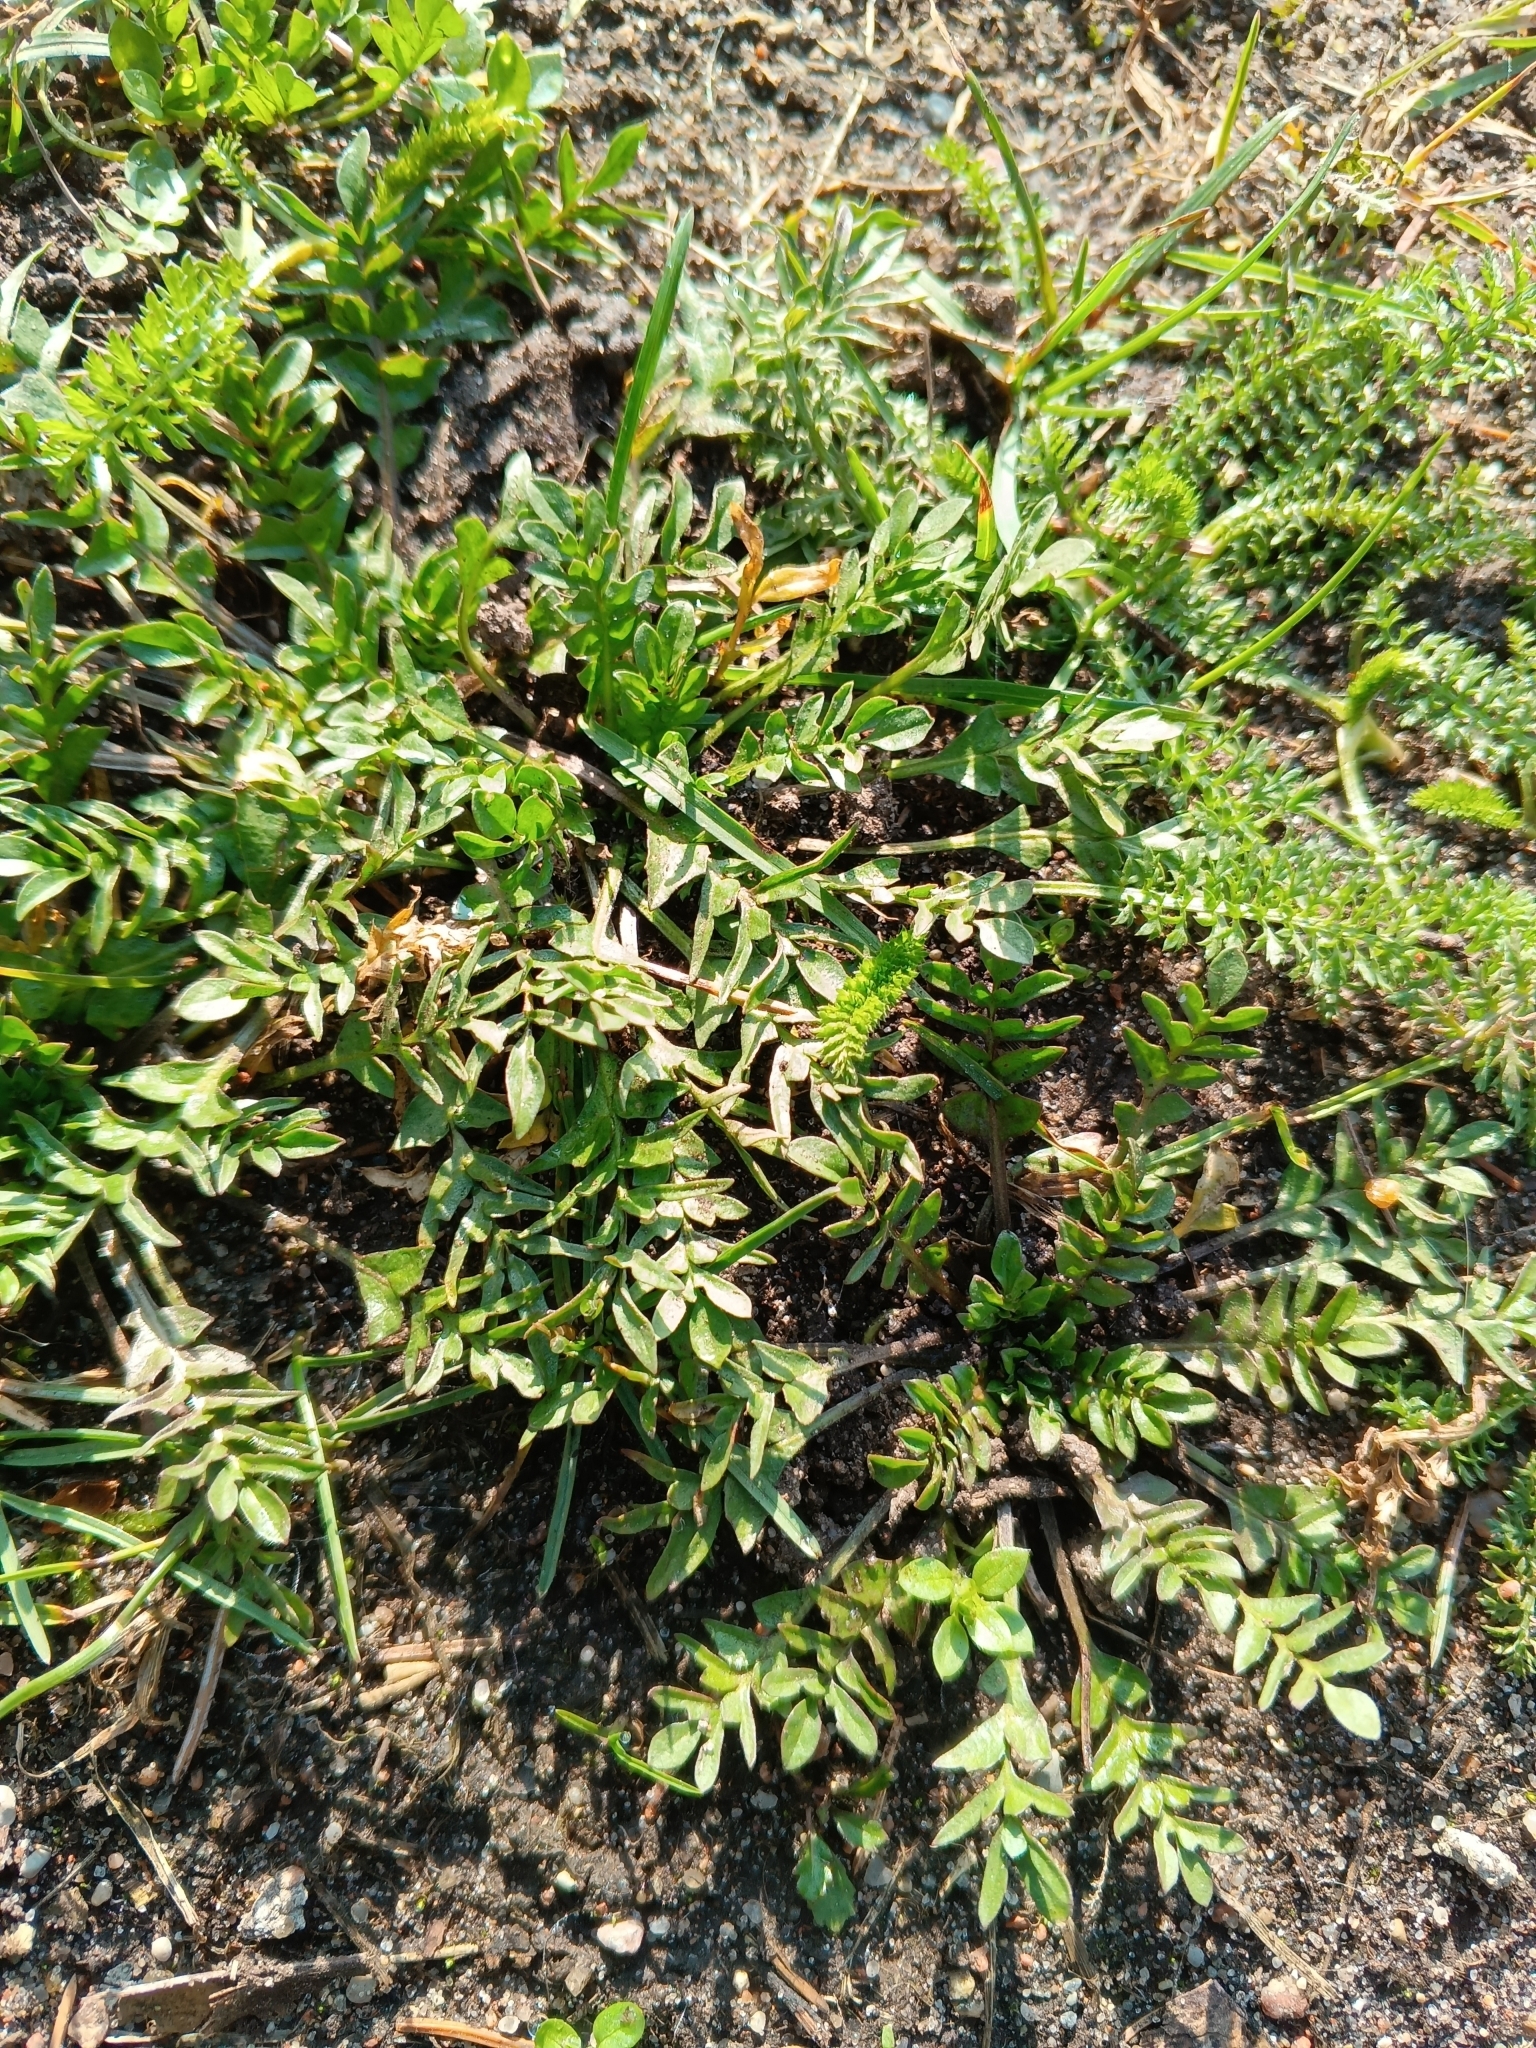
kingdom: Plantae
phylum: Tracheophyta
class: Magnoliopsida
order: Brassicales
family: Brassicaceae
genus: Capsella
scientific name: Capsella bursa-pastoris
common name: Shepherd's purse
